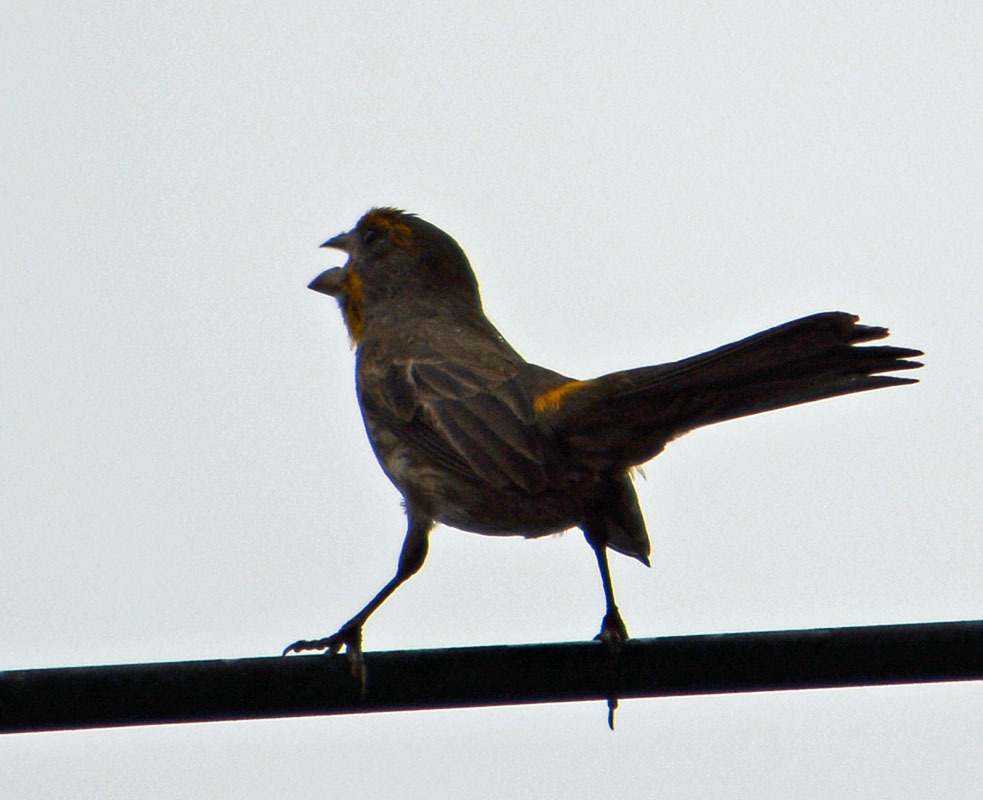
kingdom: Animalia
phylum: Chordata
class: Aves
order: Passeriformes
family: Fringillidae
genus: Haemorhous
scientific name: Haemorhous mexicanus
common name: House finch
